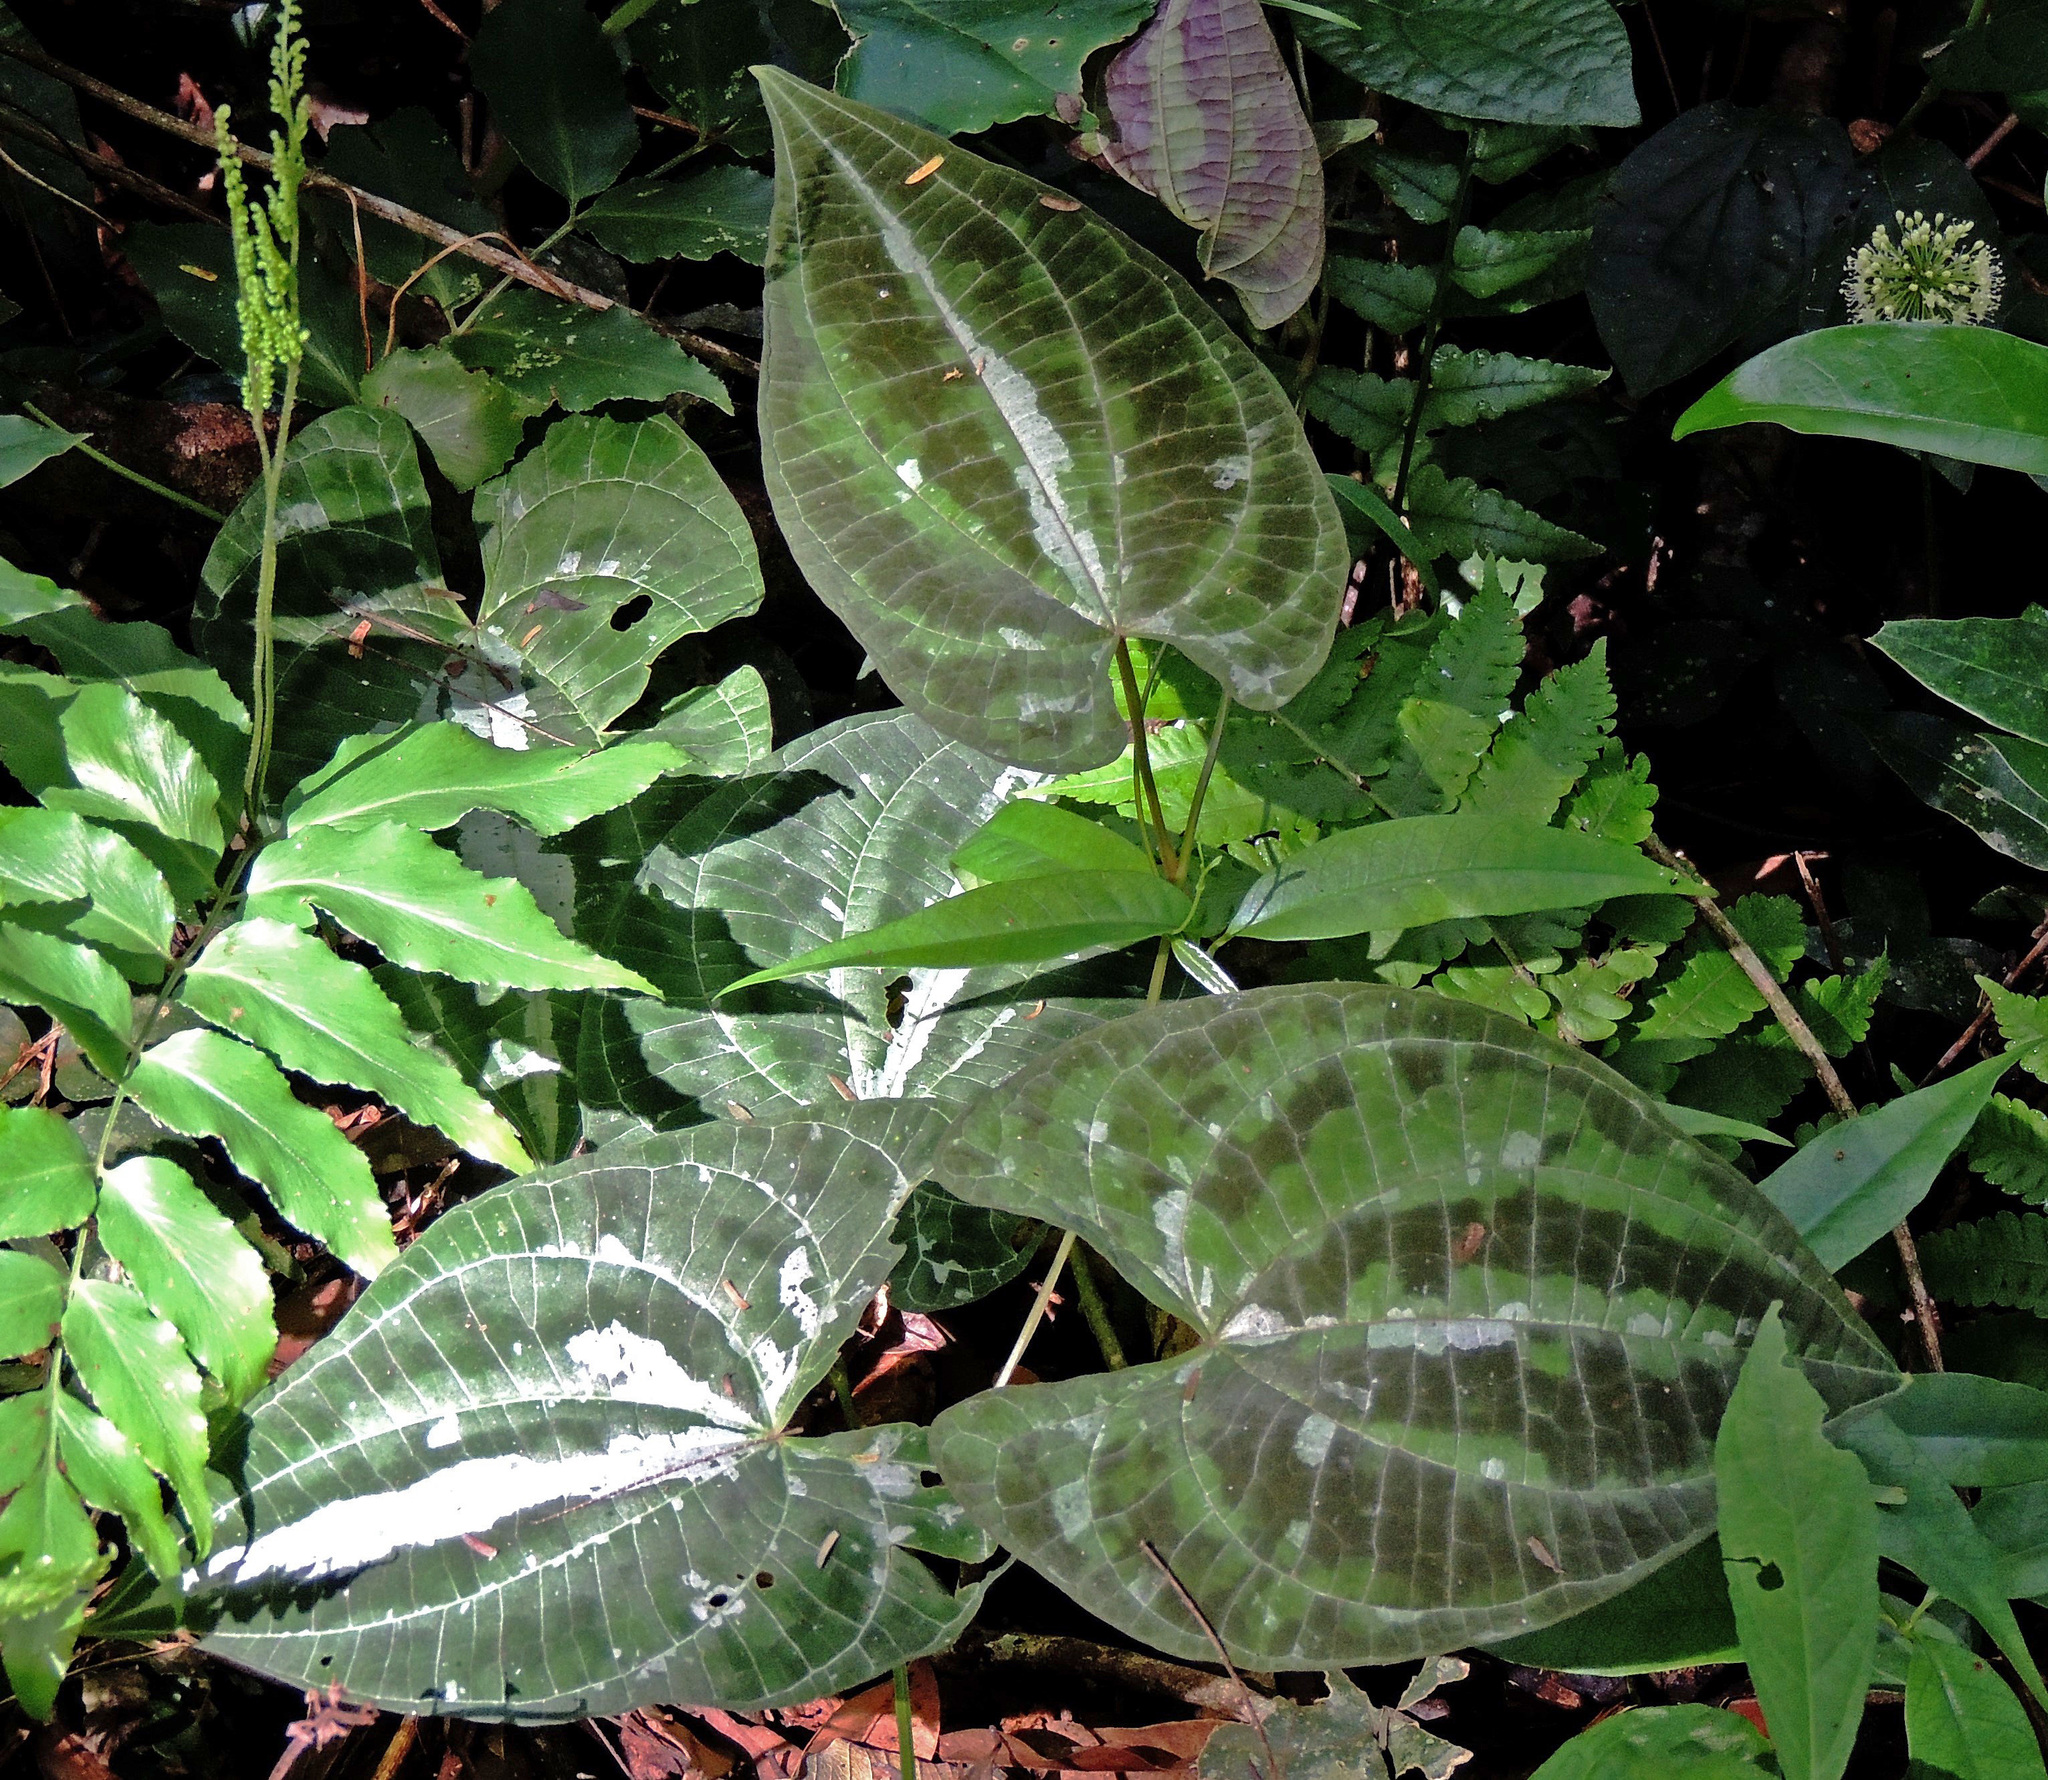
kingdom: Plantae
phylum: Tracheophyta
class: Liliopsida
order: Dioscoreales
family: Dioscoreaceae
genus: Dioscorea
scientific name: Dioscorea dodecaneura
